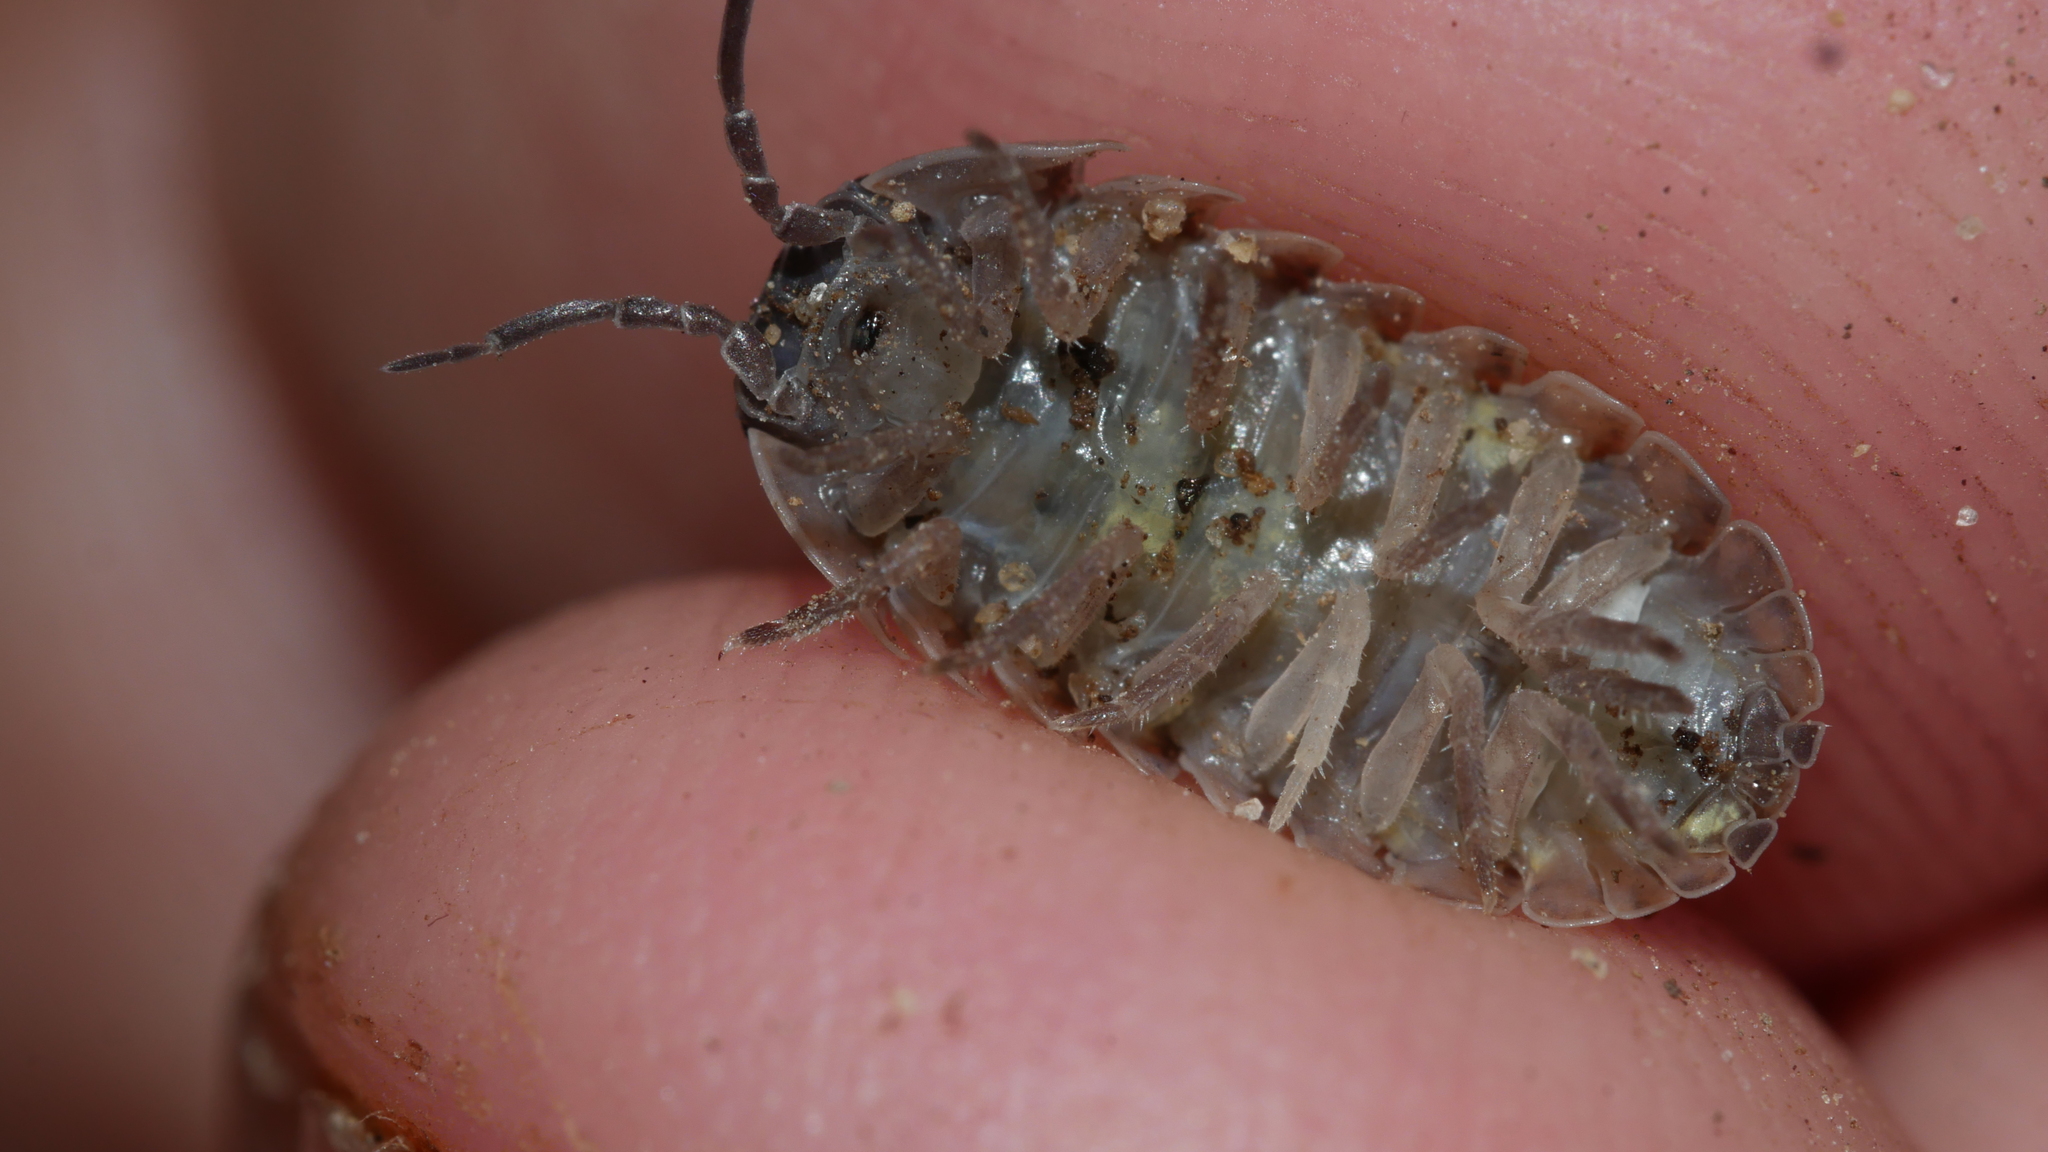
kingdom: Animalia
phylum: Arthropoda
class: Malacostraca
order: Isopoda
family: Armadillidiidae
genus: Armadillidium
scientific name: Armadillidium vulgare
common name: Common pill woodlouse
